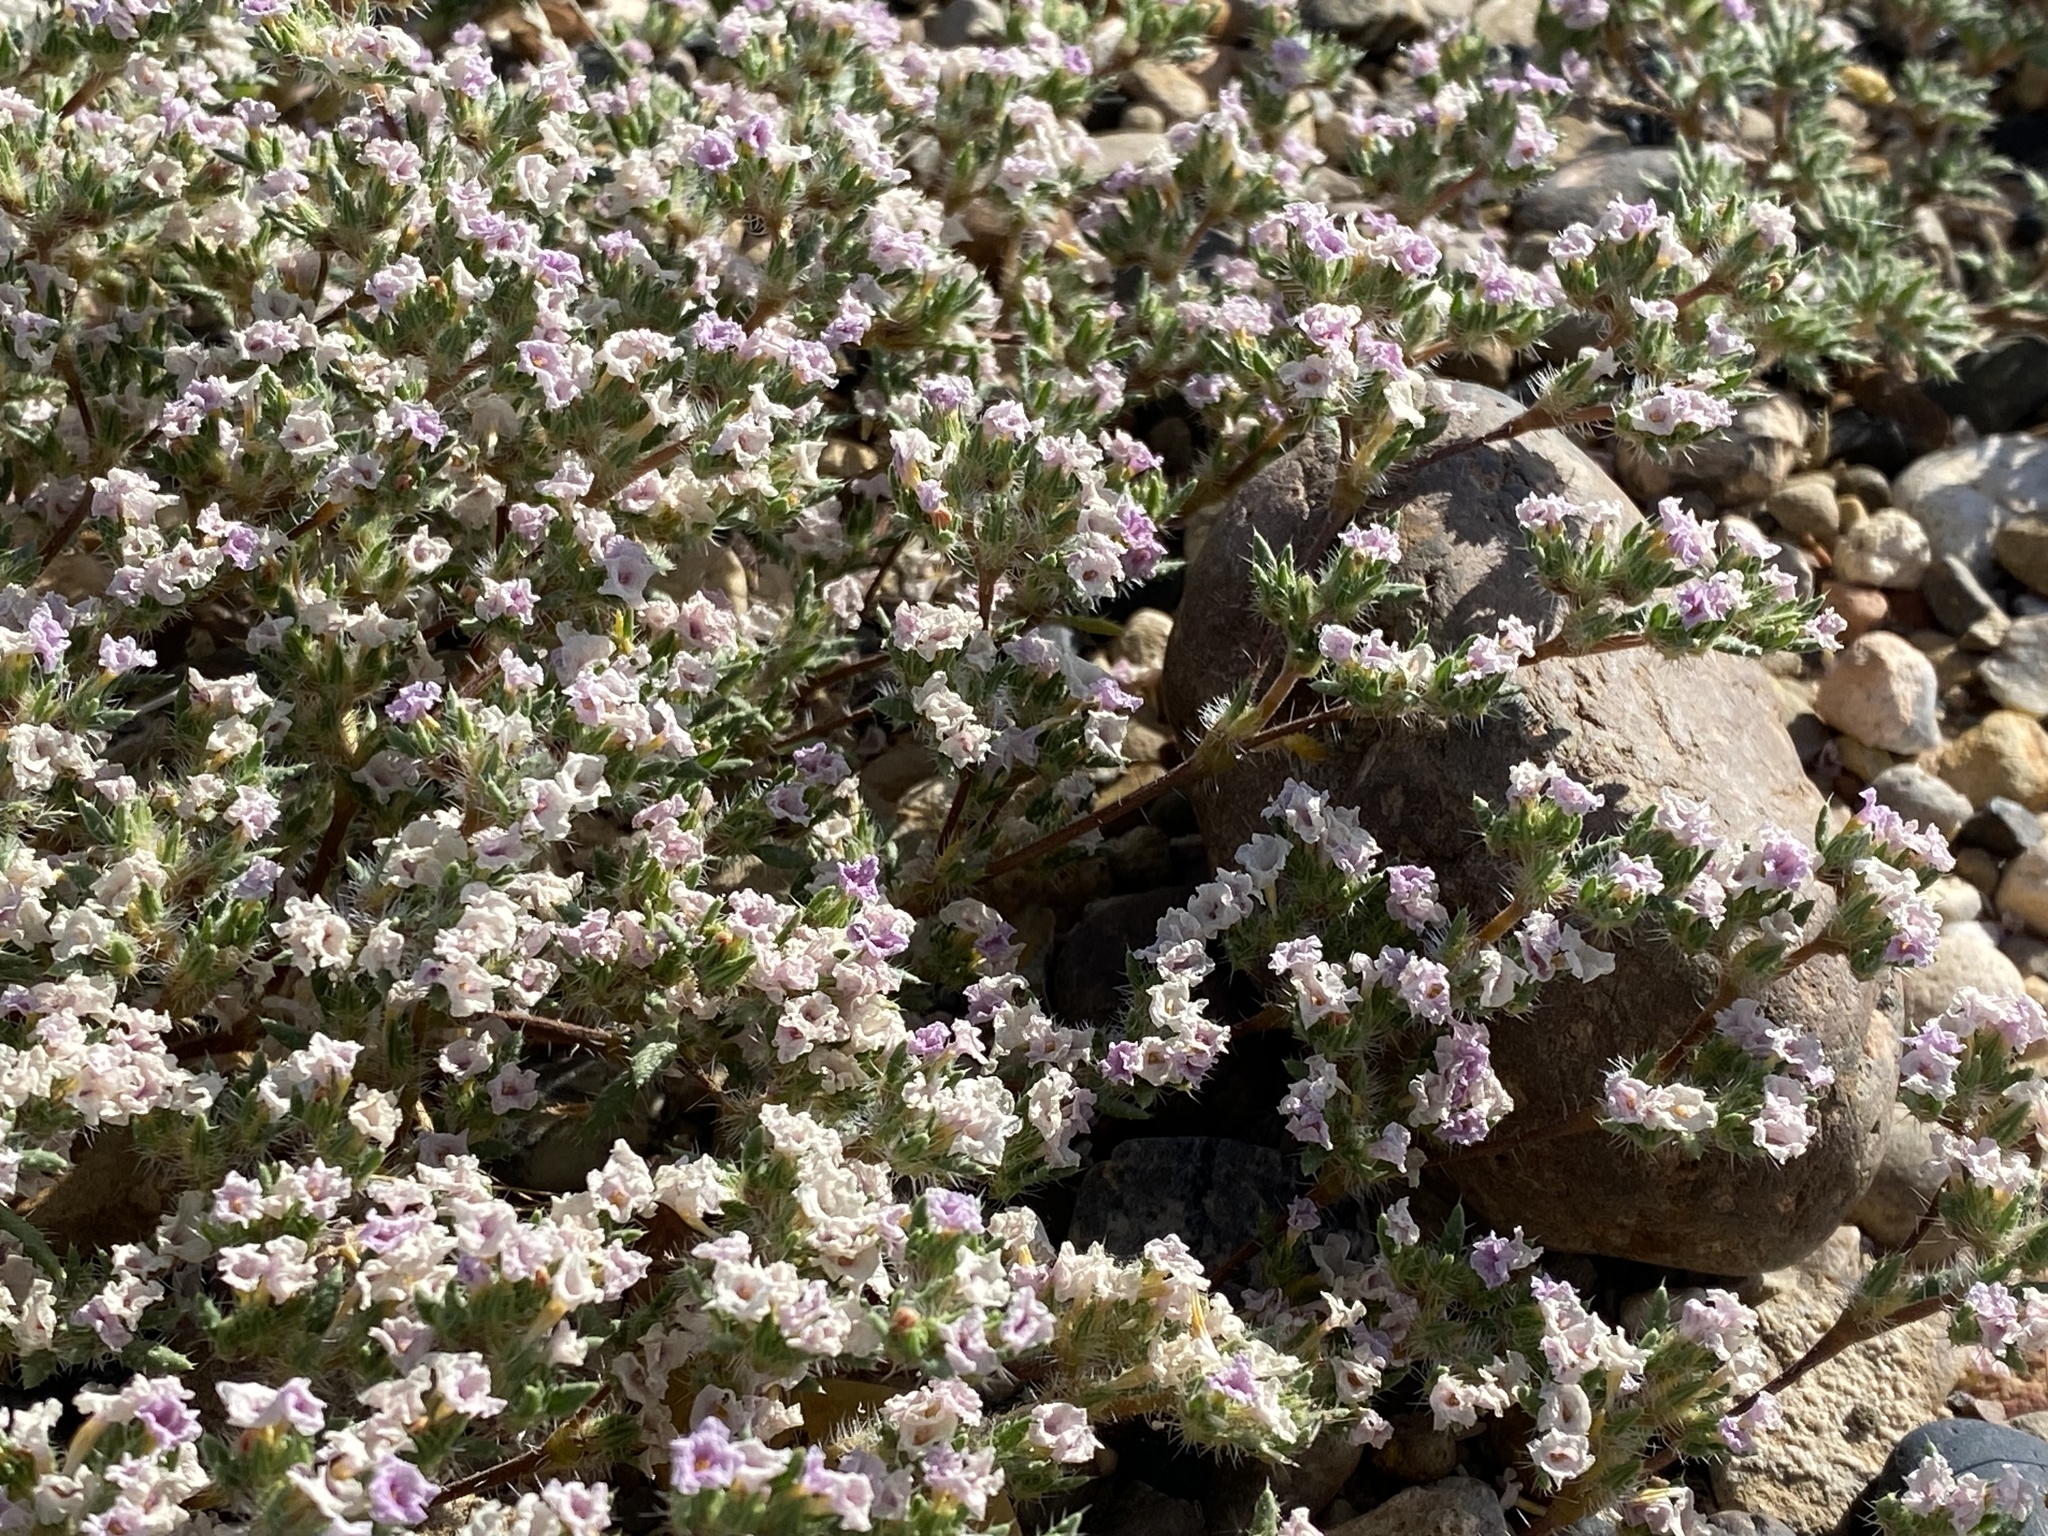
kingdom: Plantae
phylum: Tracheophyta
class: Magnoliopsida
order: Boraginales
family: Ehretiaceae
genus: Tiquilia
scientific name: Tiquilia latior
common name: Matted tiquilia
